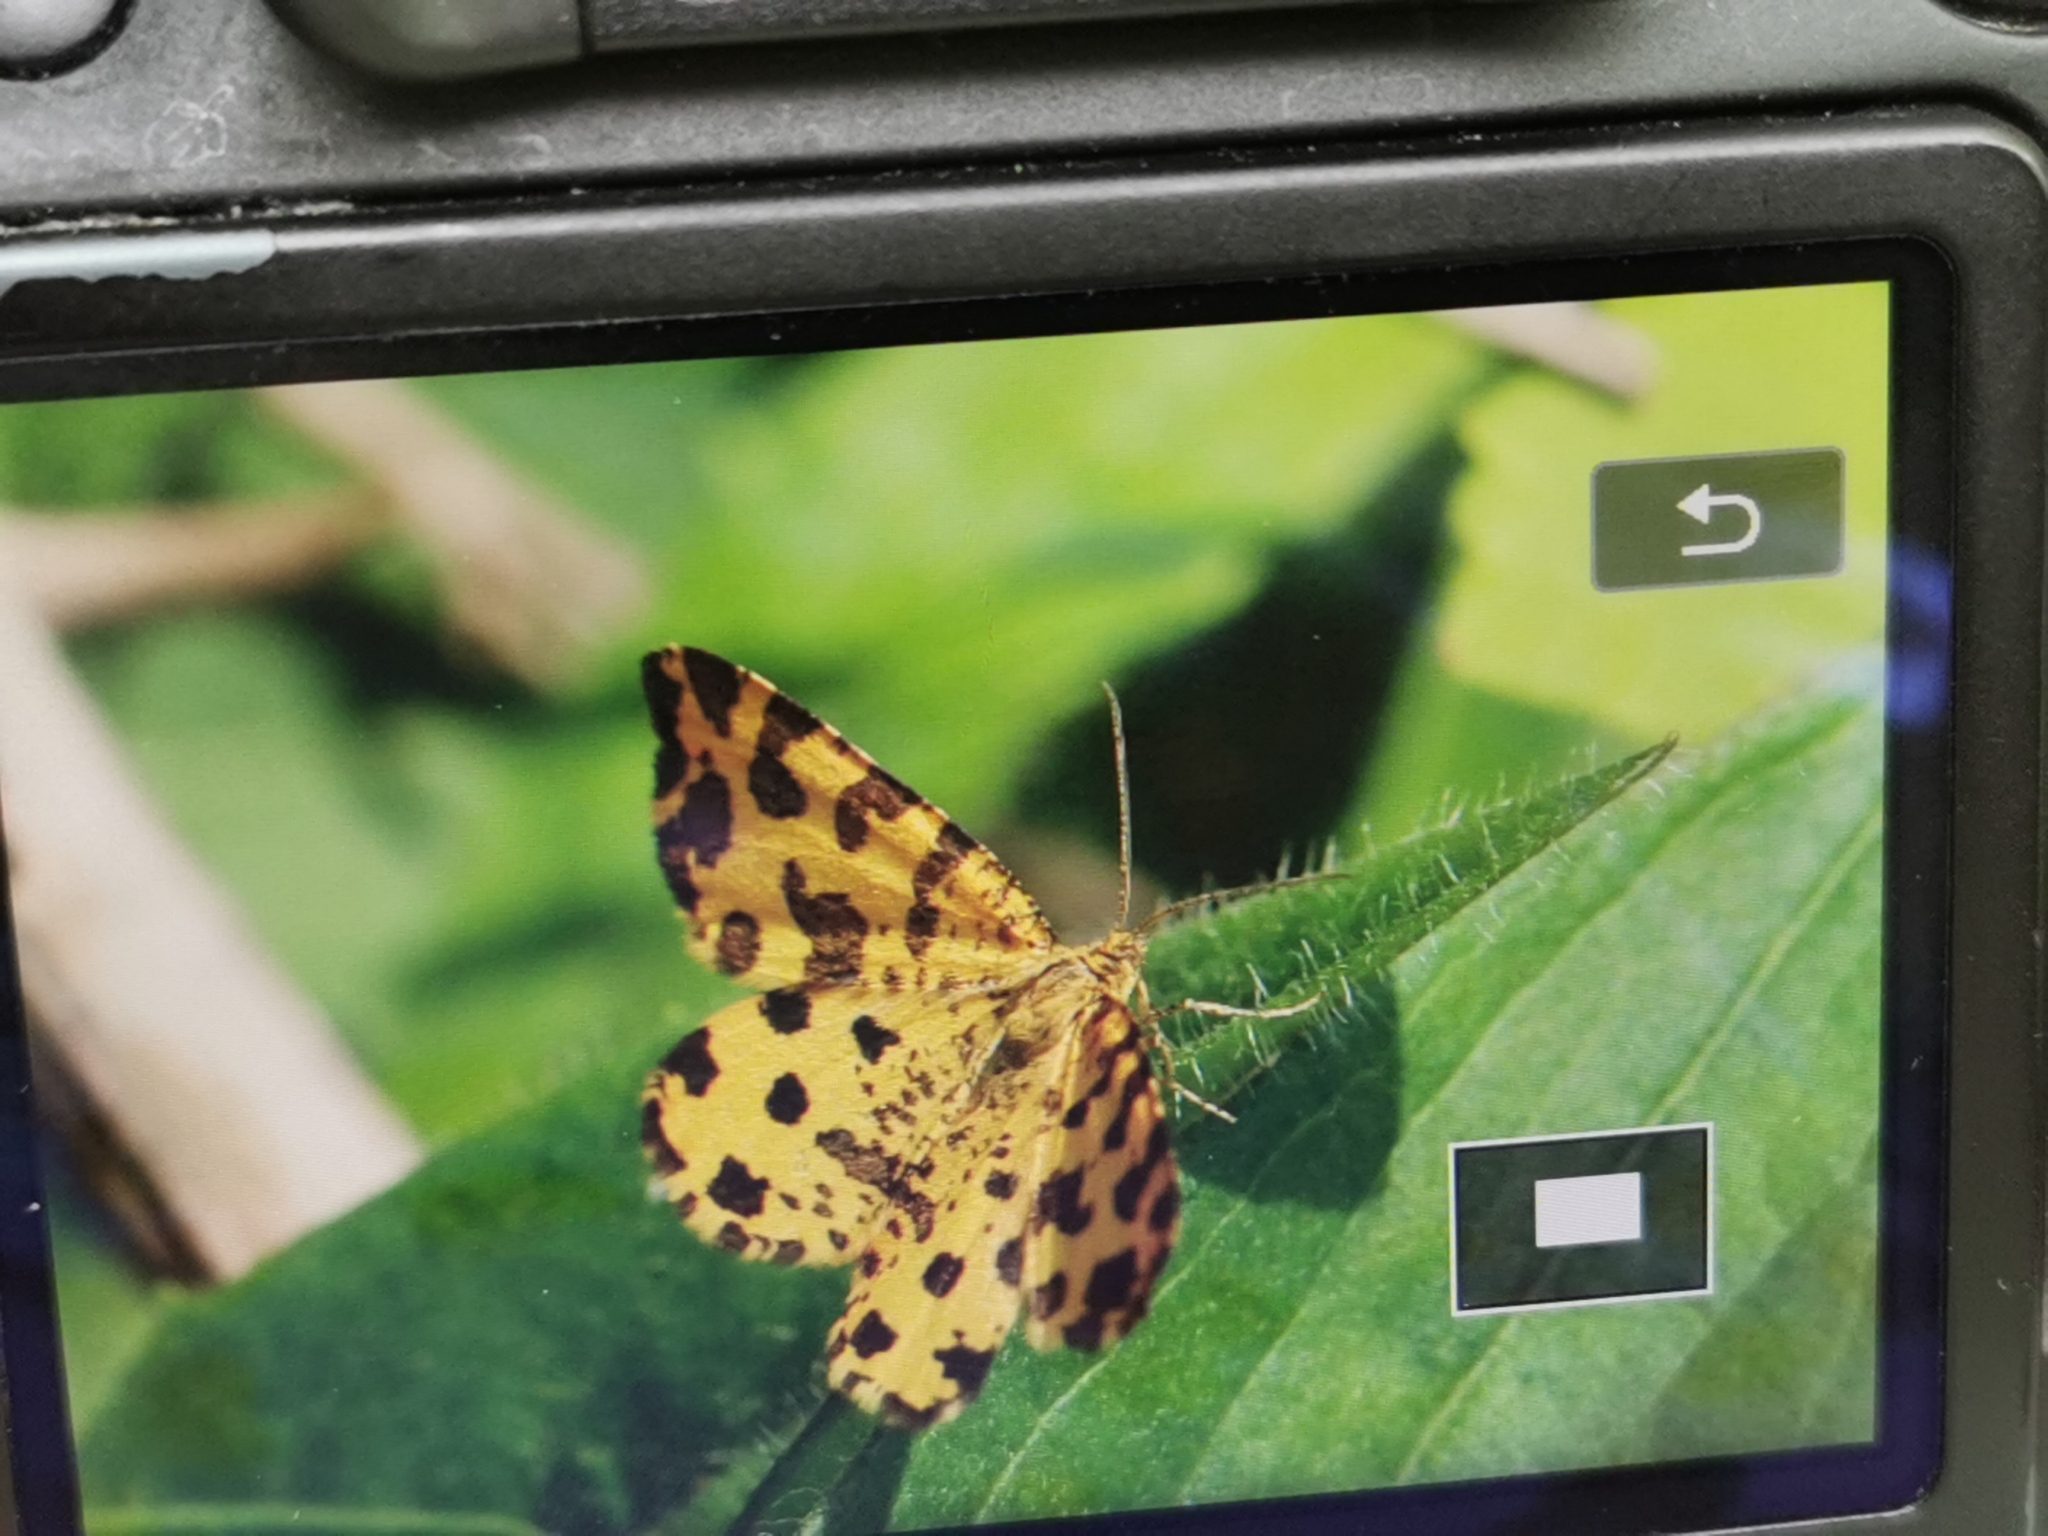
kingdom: Animalia
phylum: Arthropoda
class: Insecta
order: Lepidoptera
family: Geometridae
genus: Pseudopanthera
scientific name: Pseudopanthera macularia
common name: Speckled yellow
